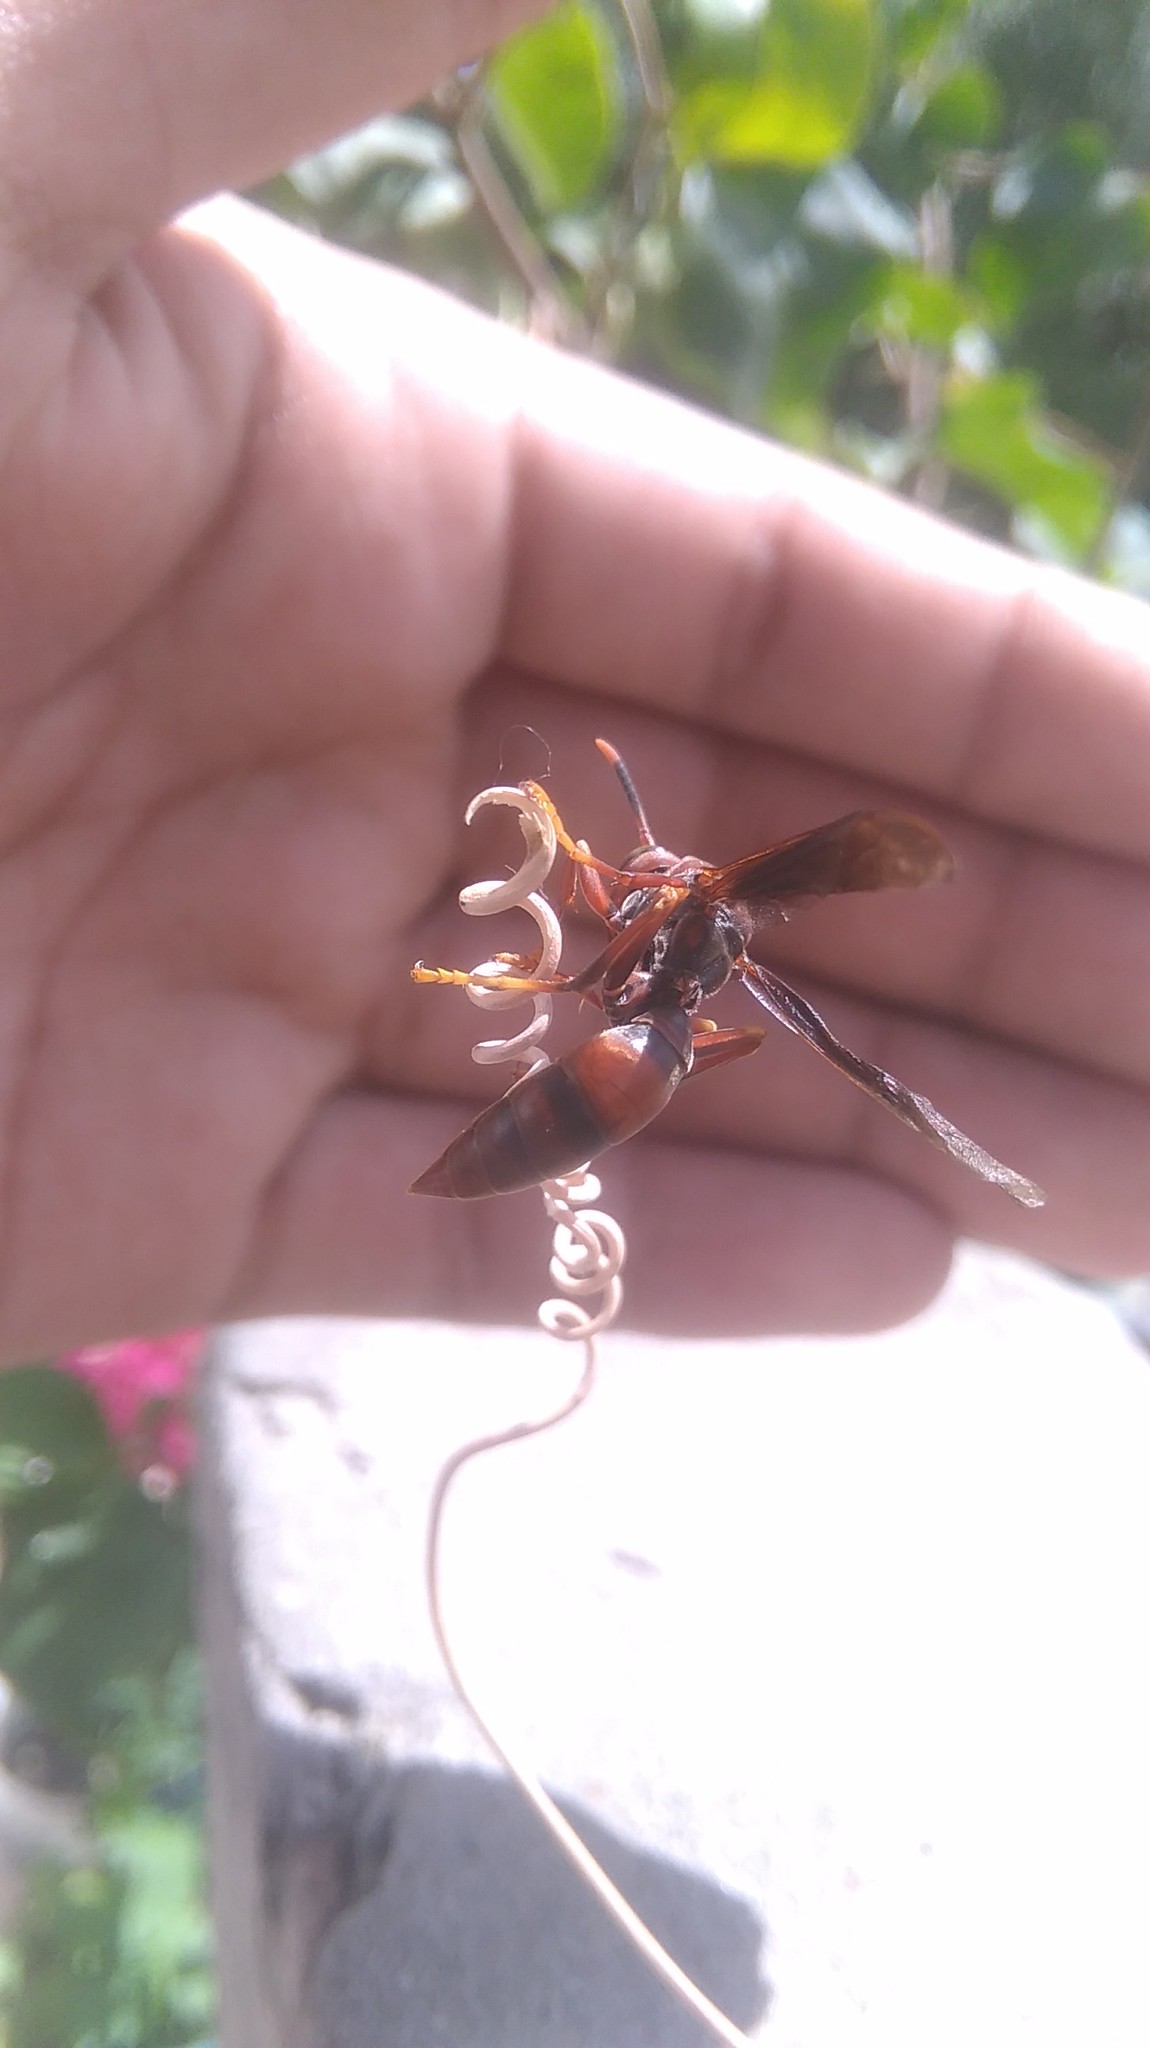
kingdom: Animalia
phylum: Arthropoda
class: Insecta
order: Hymenoptera
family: Pompilidae
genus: Aphanilopterus
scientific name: Aphanilopterus
